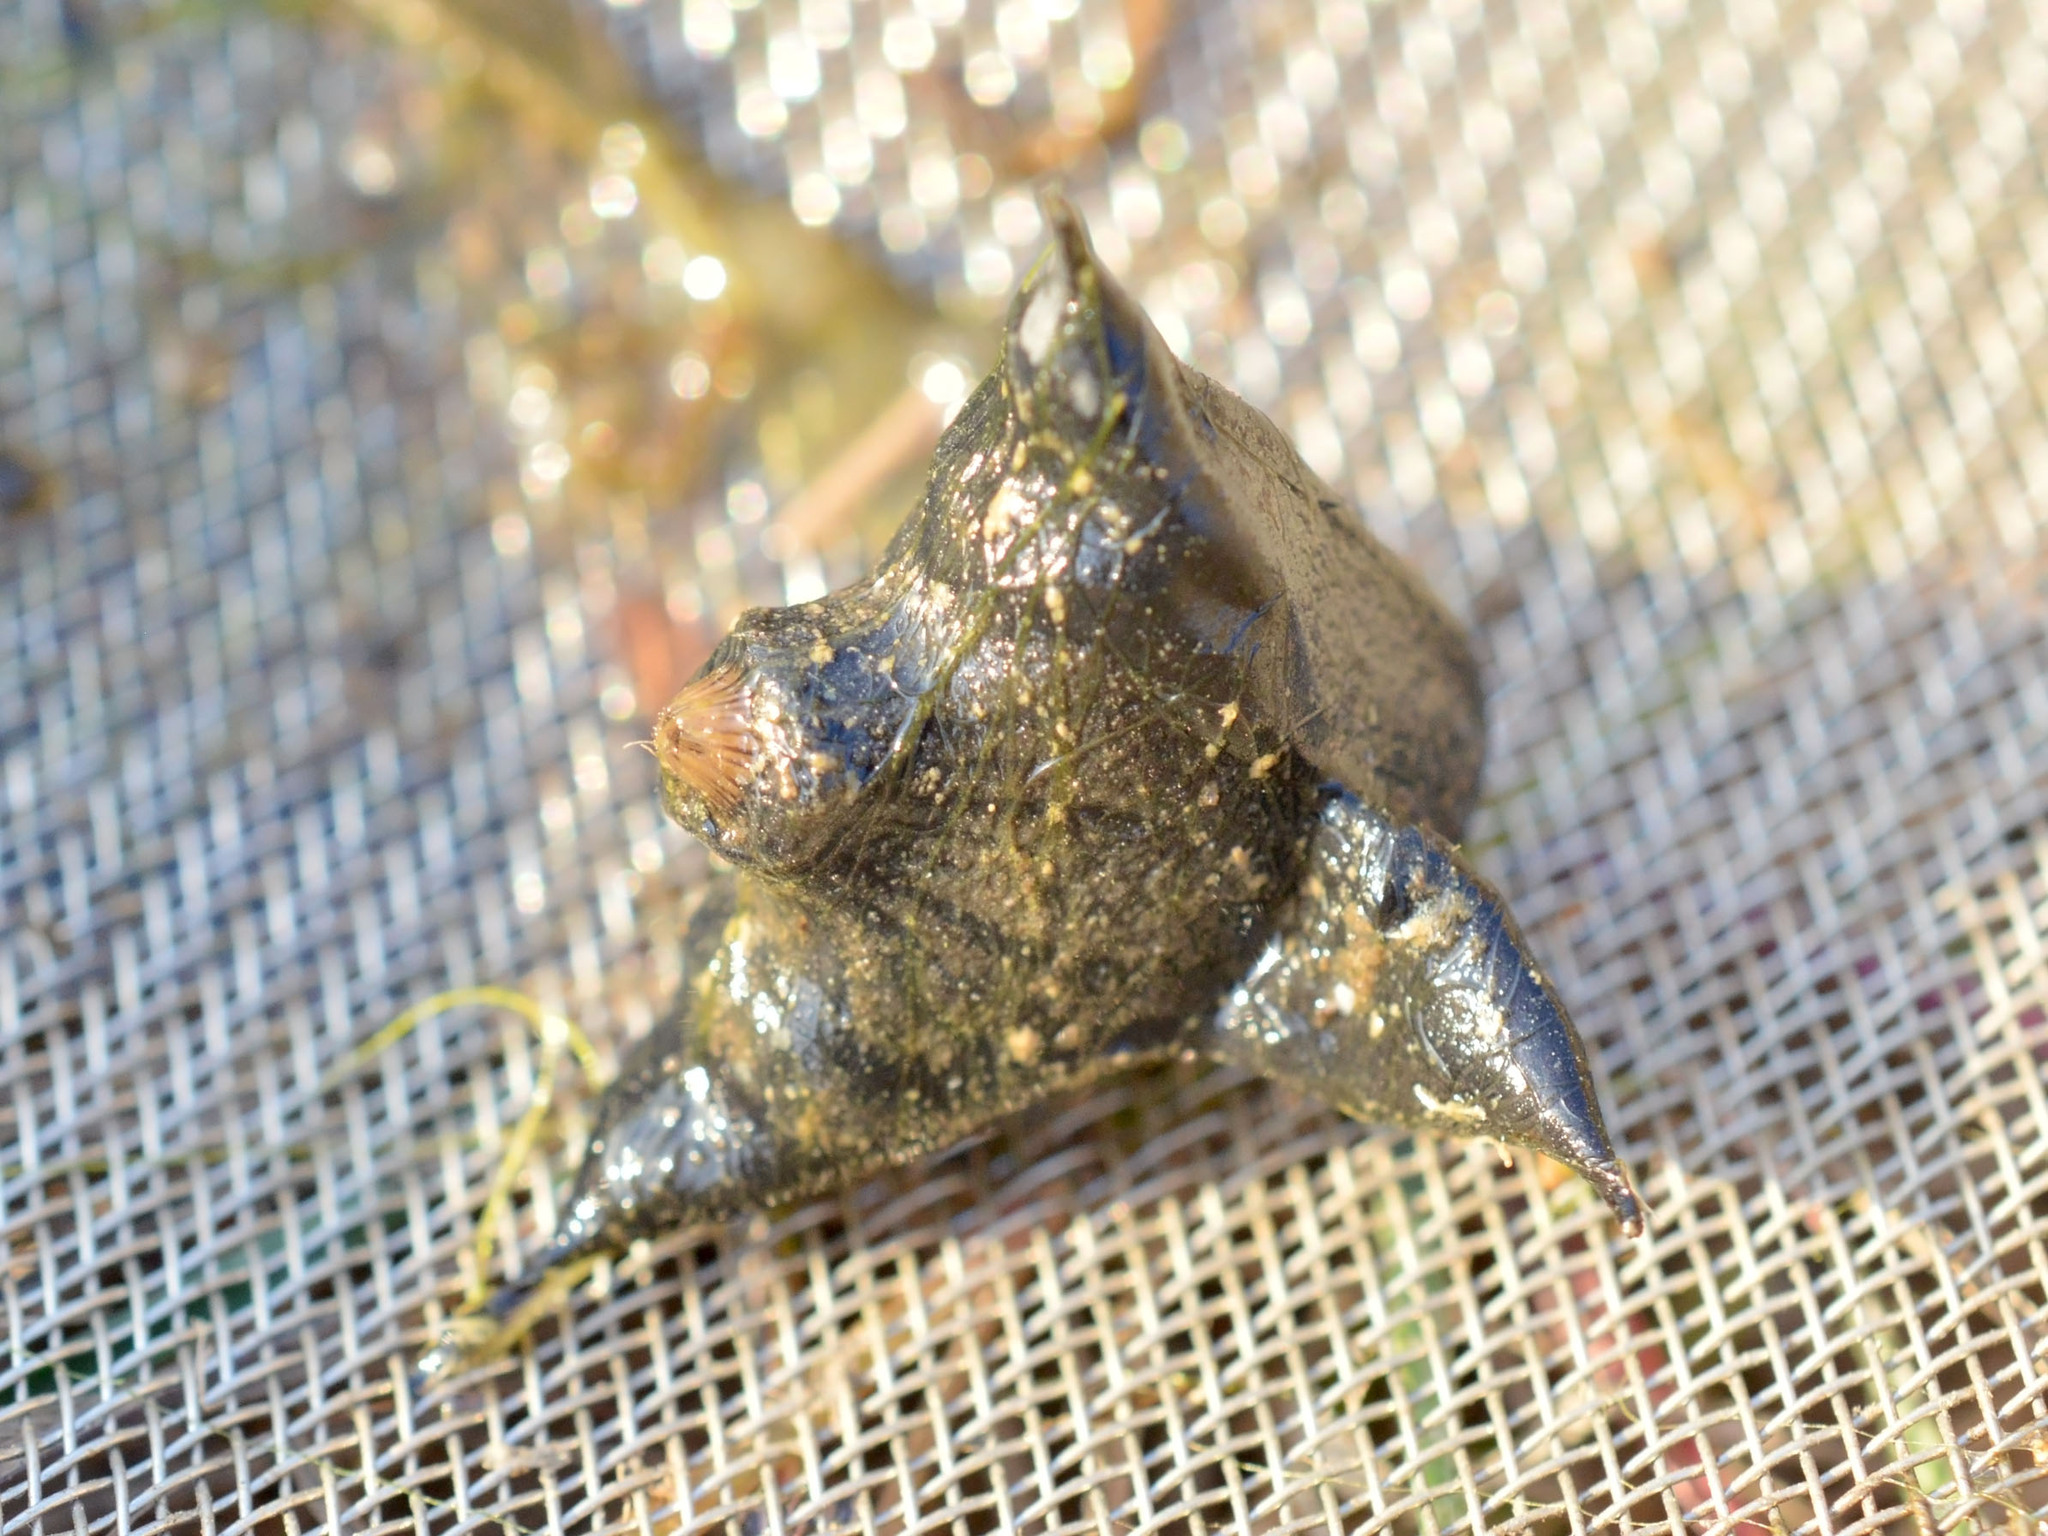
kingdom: Plantae
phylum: Tracheophyta
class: Magnoliopsida
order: Myrtales
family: Lythraceae
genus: Trapa
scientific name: Trapa natans
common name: Water chestnut
